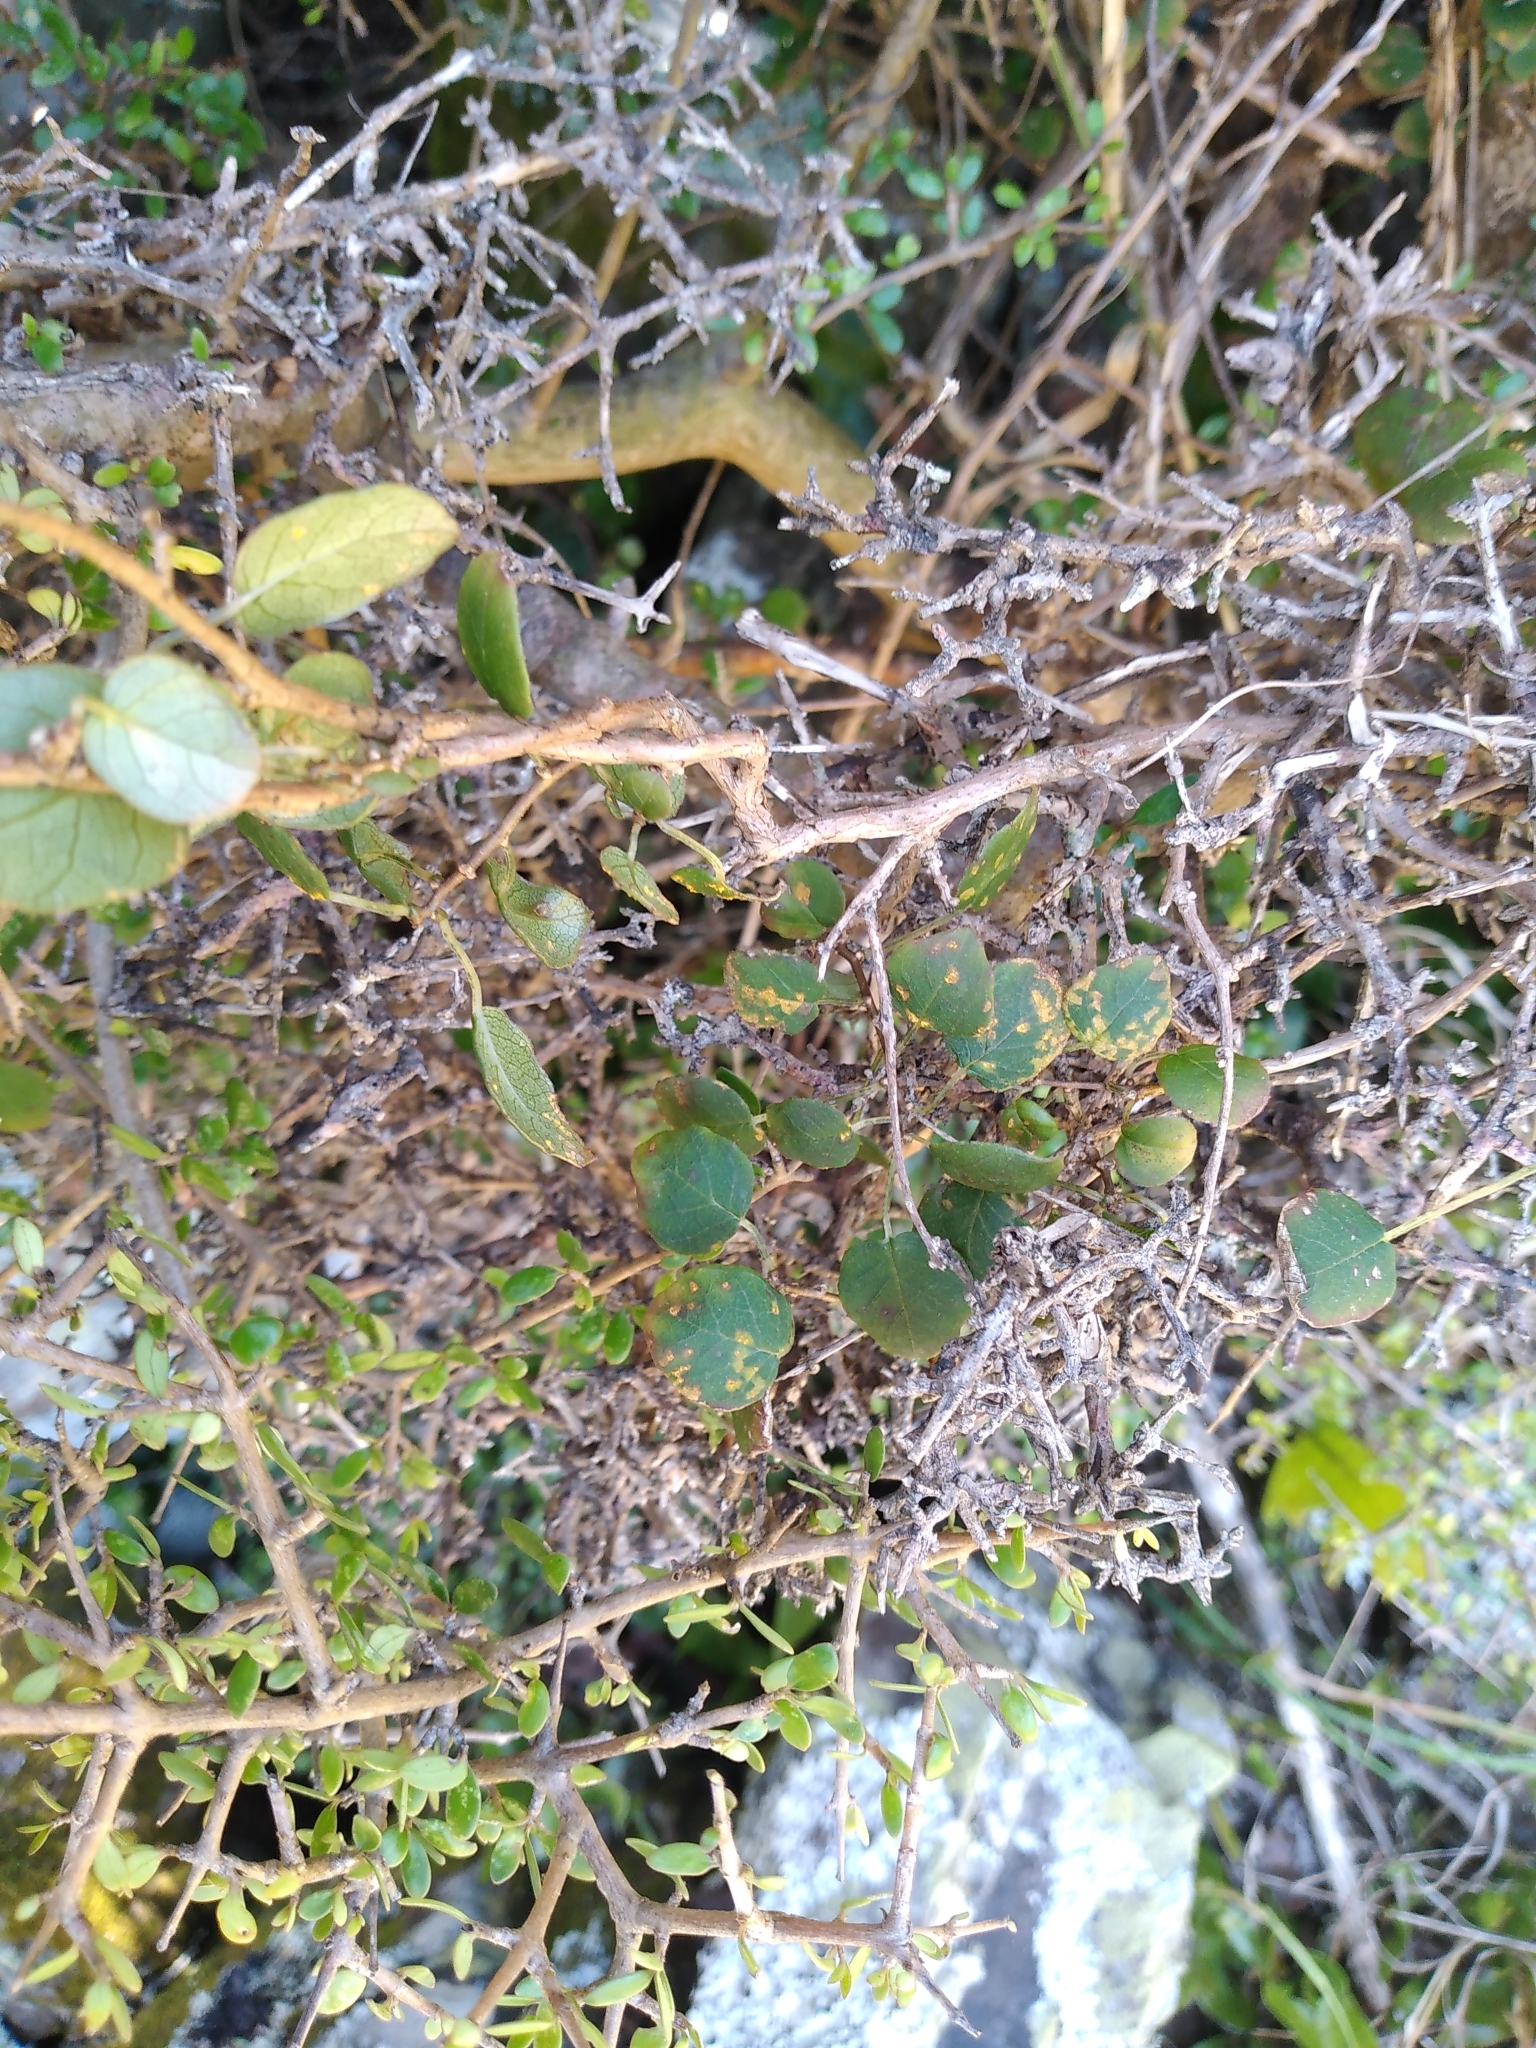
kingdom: Plantae
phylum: Tracheophyta
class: Magnoliopsida
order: Myrtales
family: Onagraceae
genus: Fuchsia
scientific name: Fuchsia perscandens
